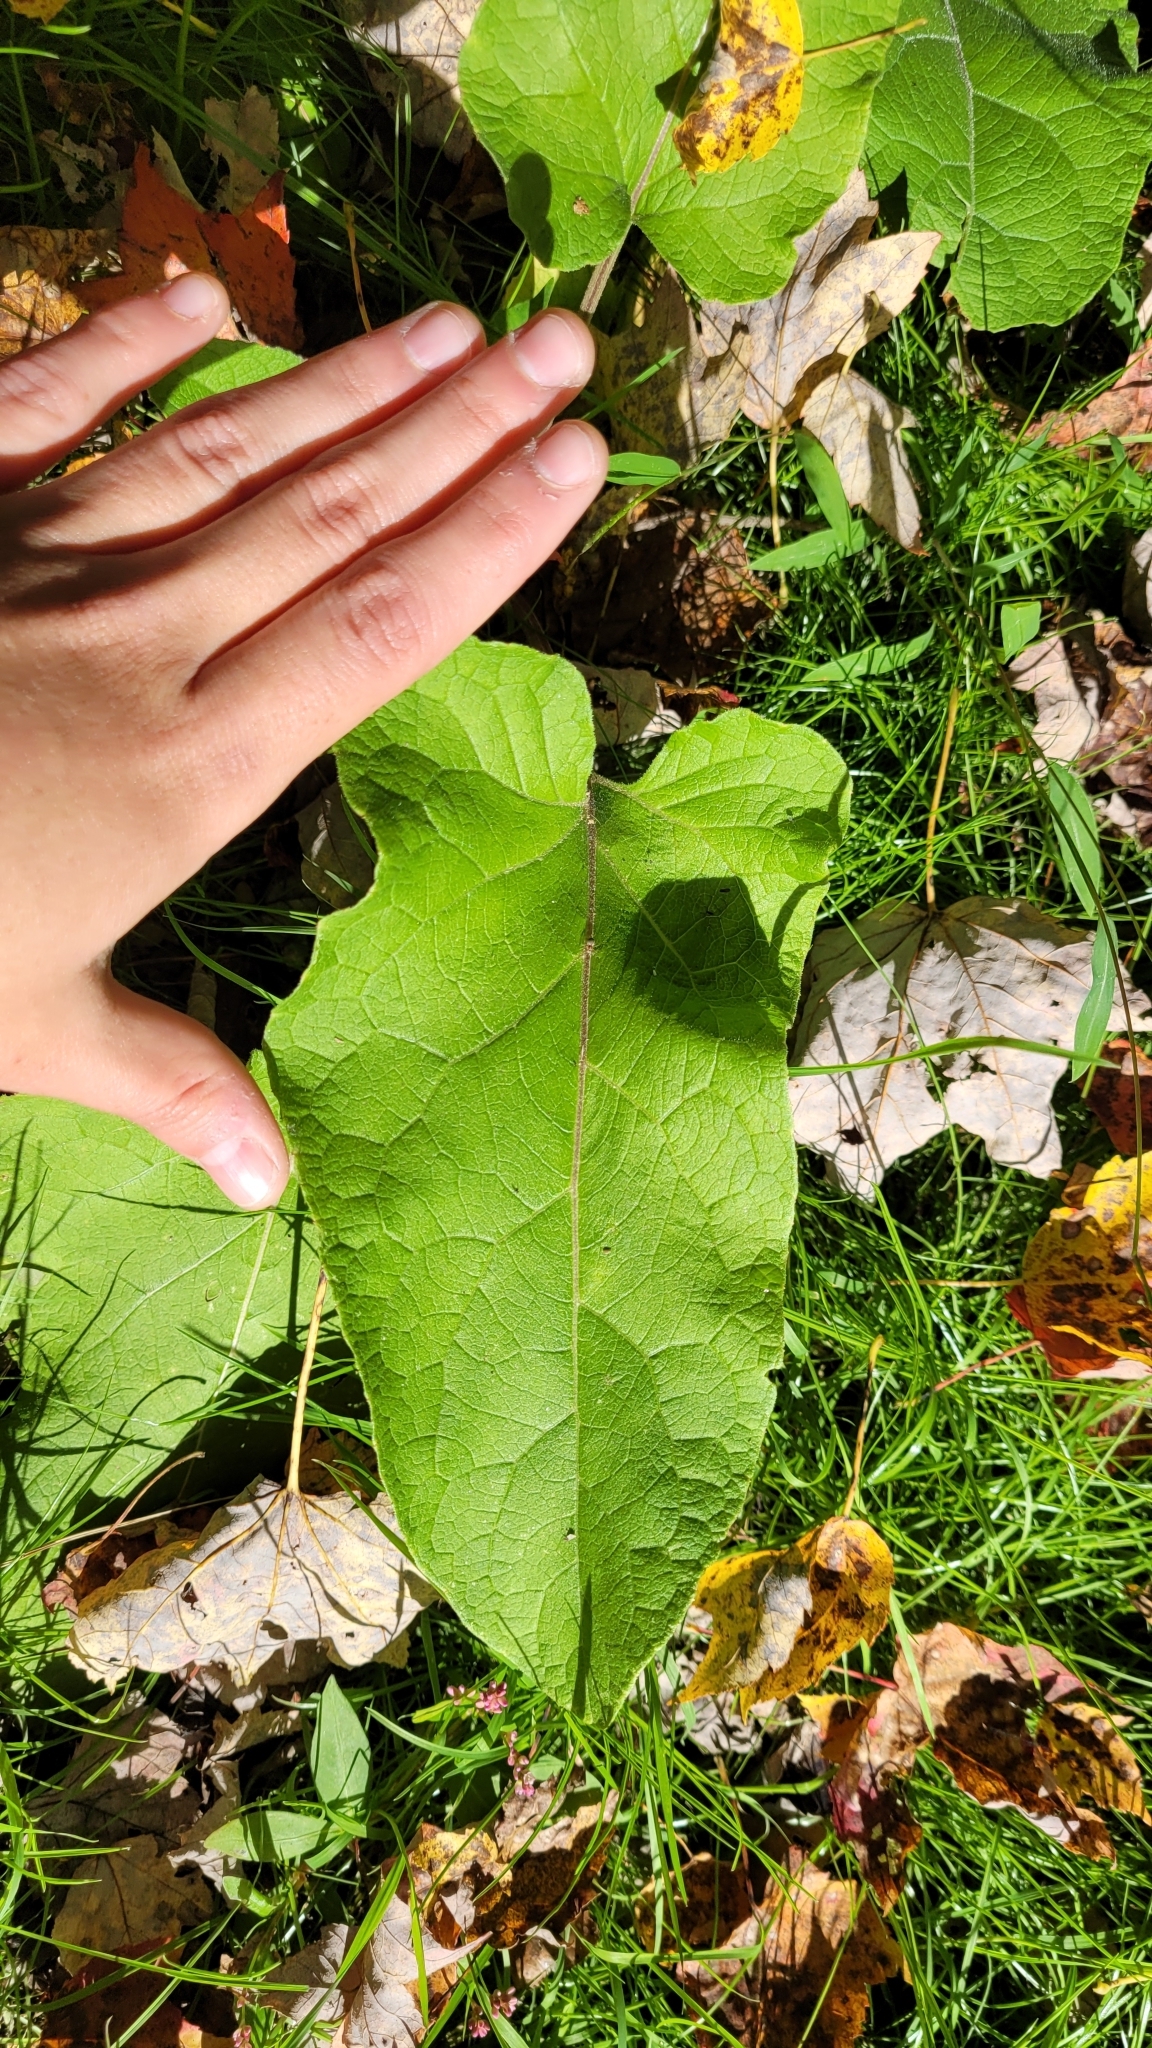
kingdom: Plantae
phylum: Tracheophyta
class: Magnoliopsida
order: Asterales
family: Asteraceae
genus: Arctium
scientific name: Arctium
